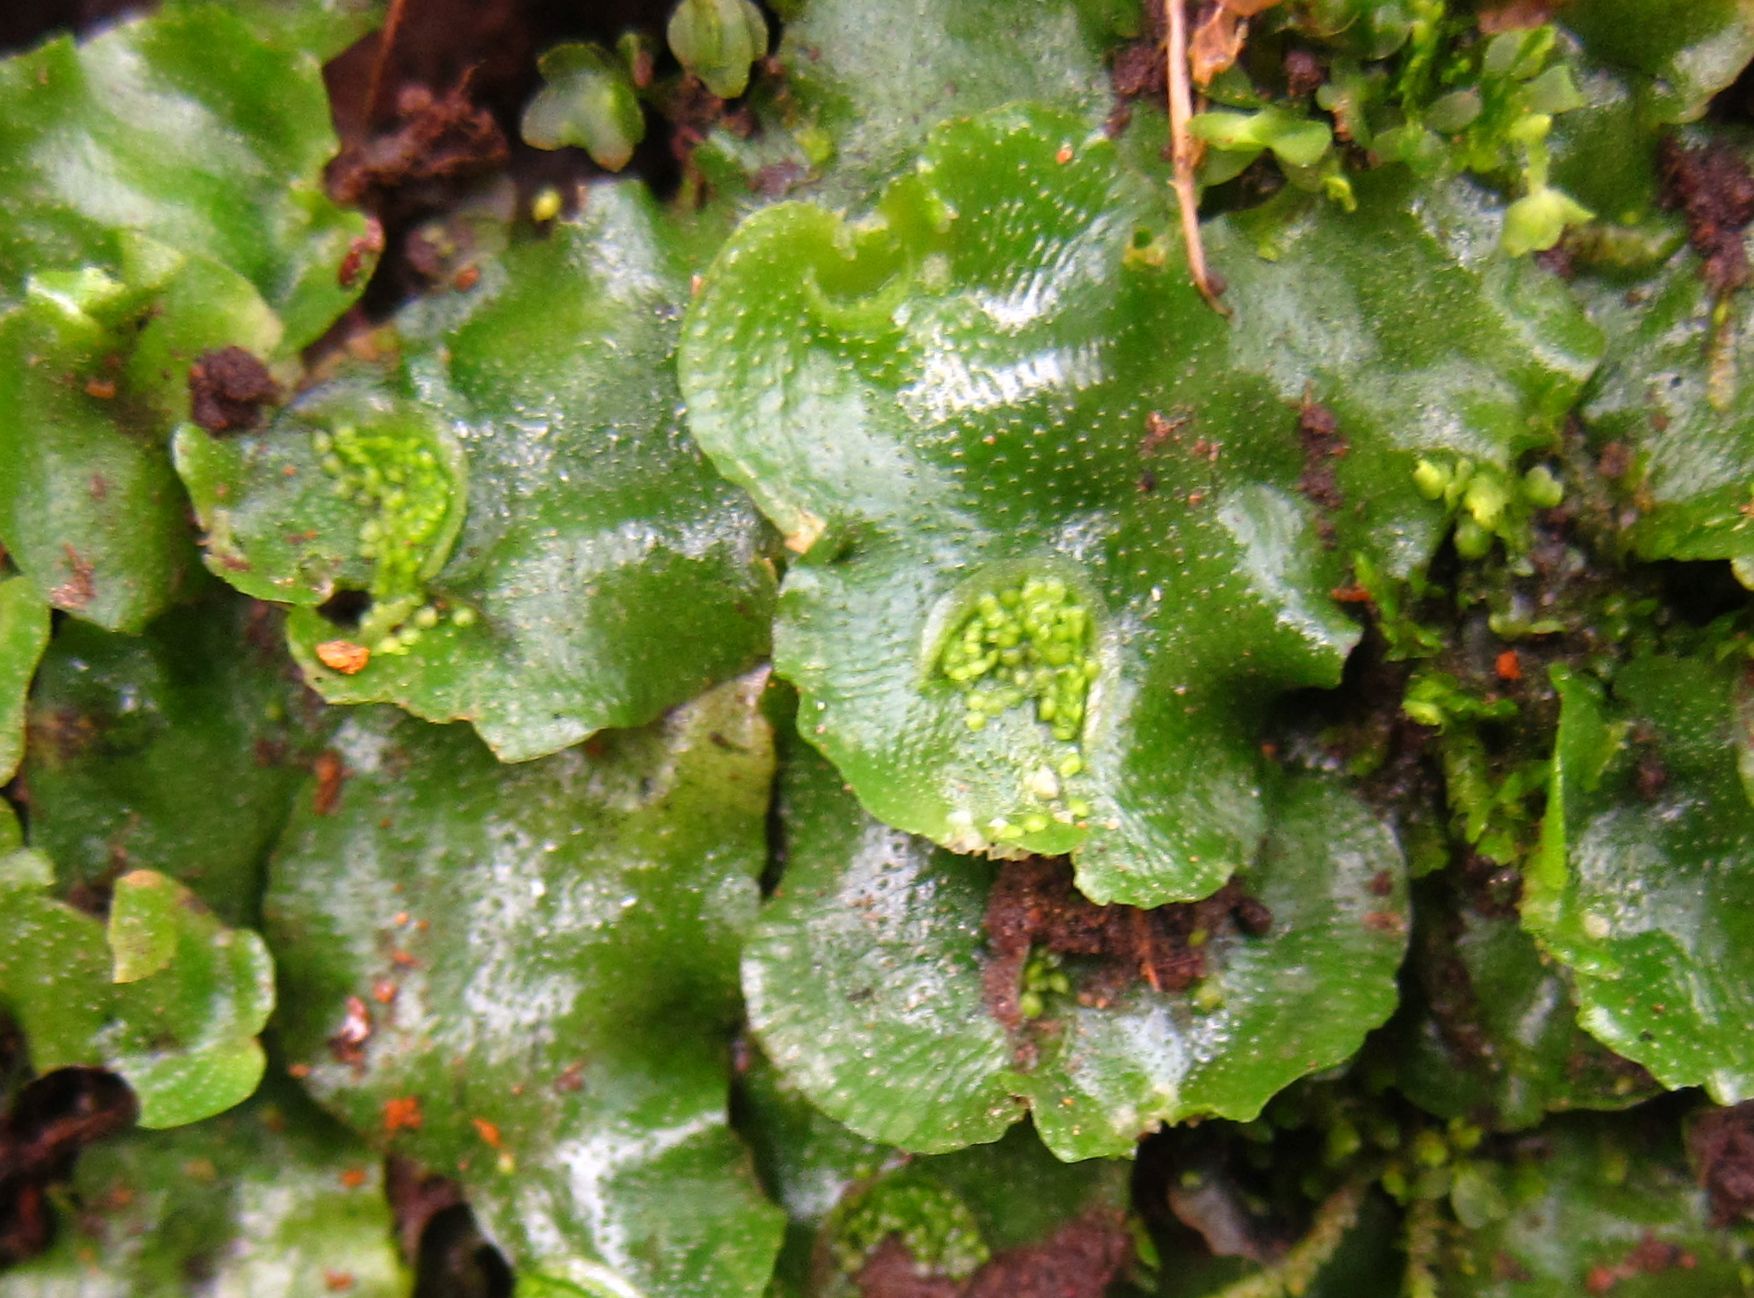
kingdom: Plantae
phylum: Marchantiophyta
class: Marchantiopsida
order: Lunulariales
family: Lunulariaceae
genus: Lunularia
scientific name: Lunularia cruciata
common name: Crescent-cup liverwort
